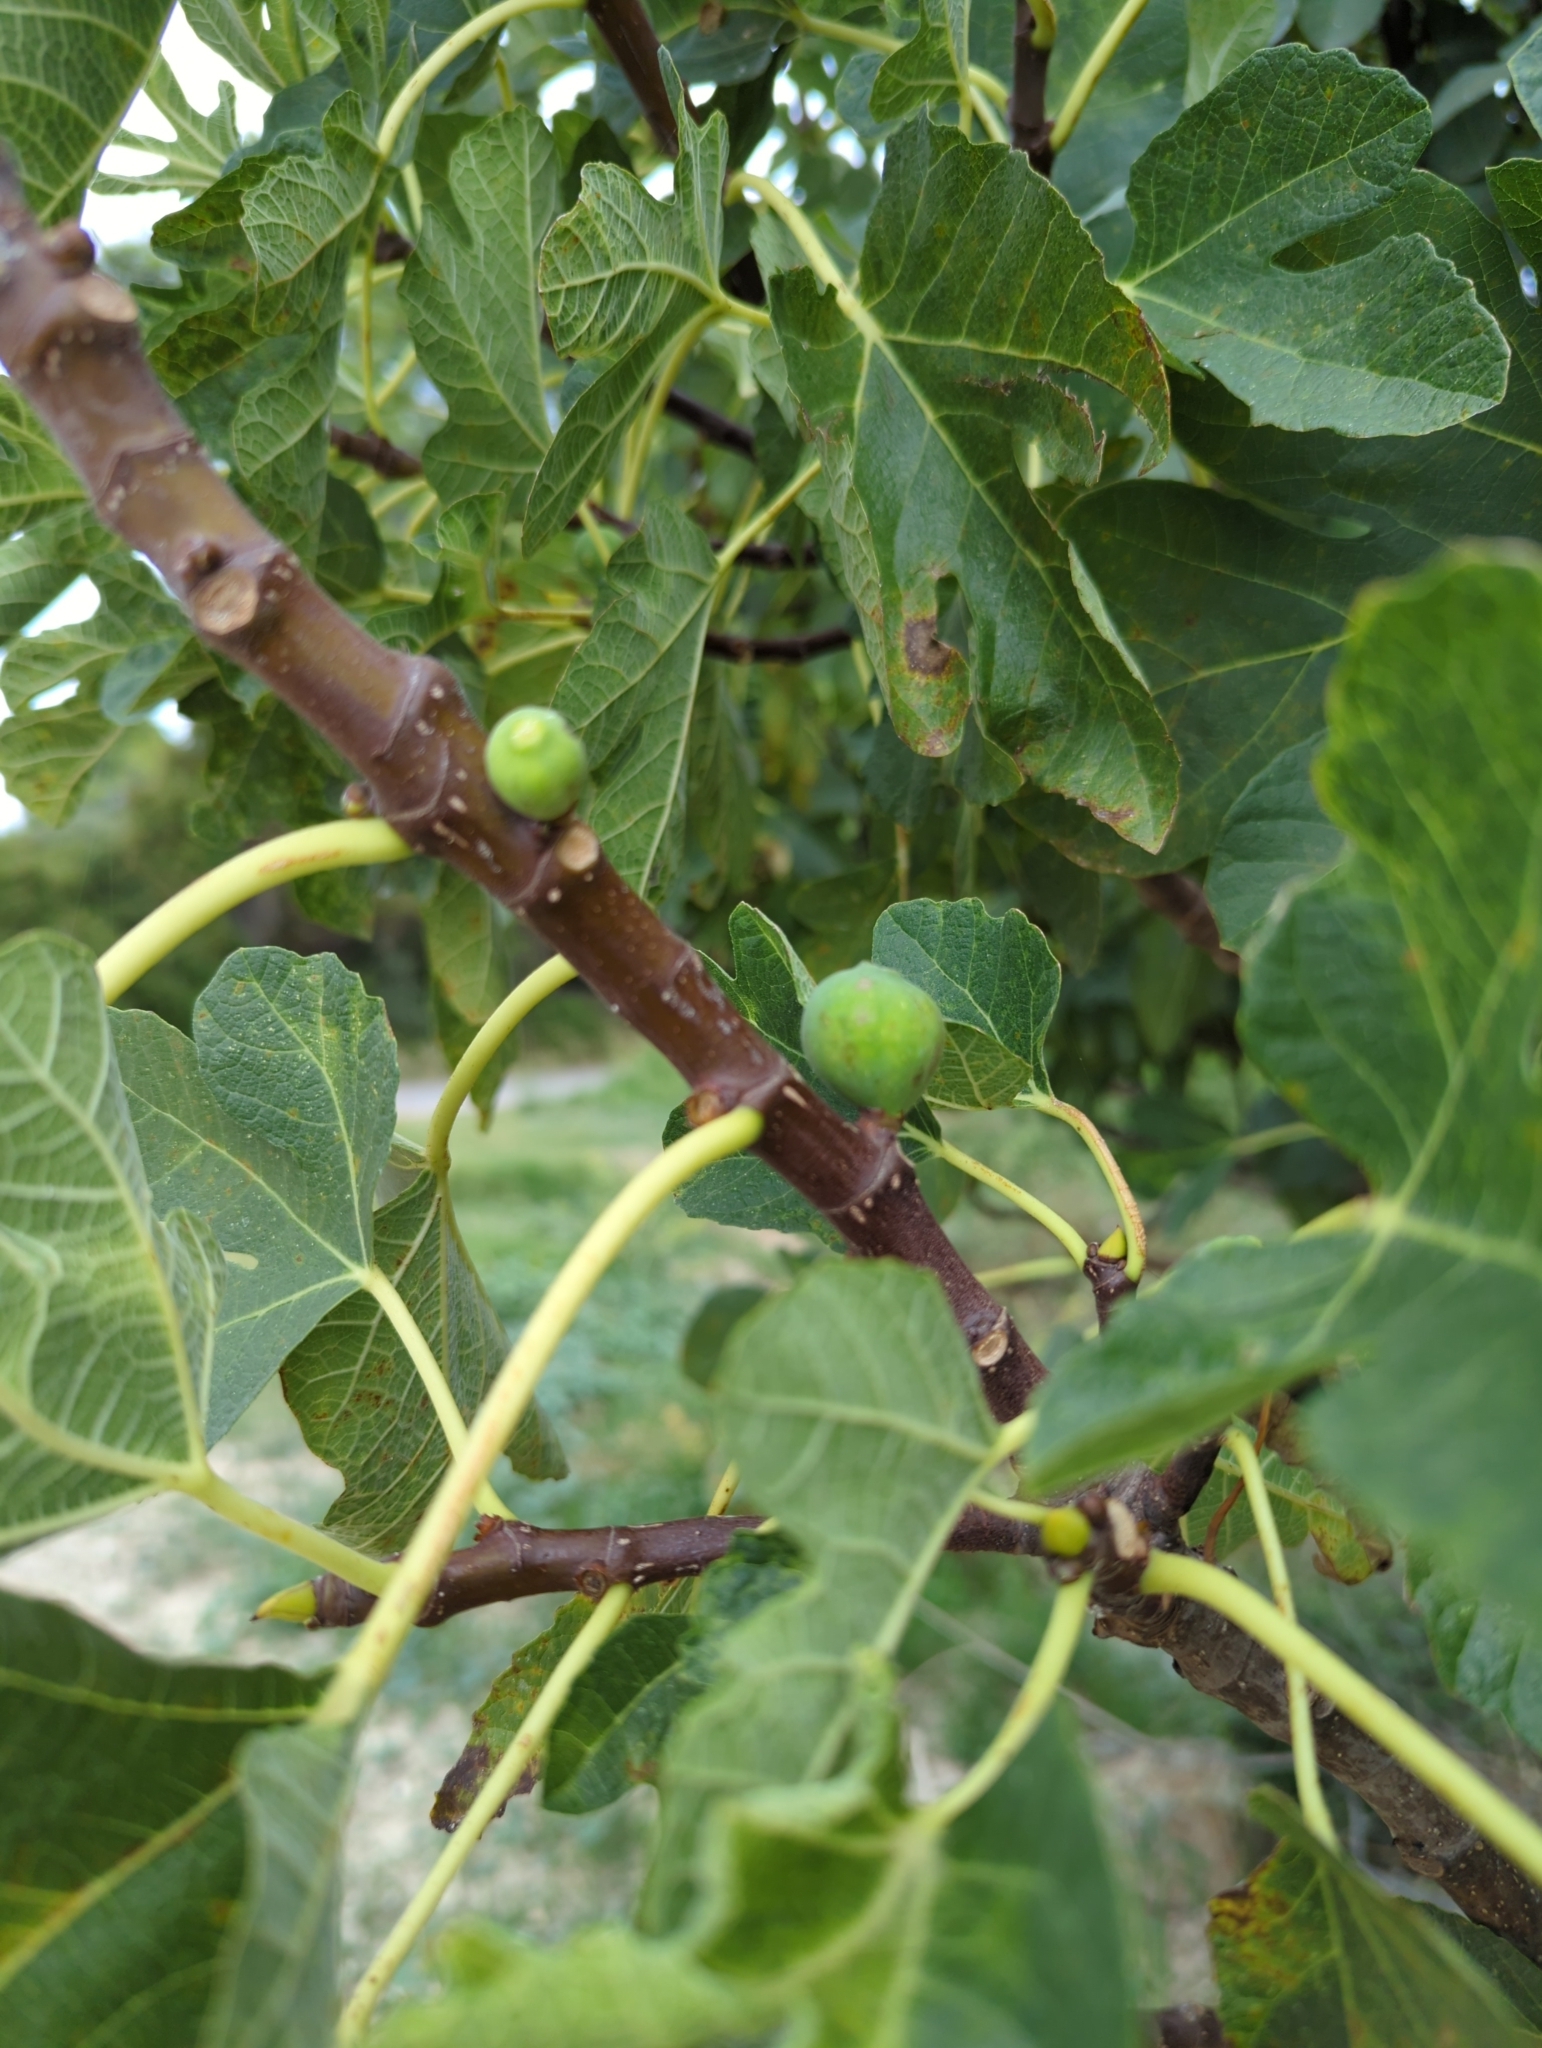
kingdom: Plantae
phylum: Tracheophyta
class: Magnoliopsida
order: Rosales
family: Moraceae
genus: Ficus
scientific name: Ficus carica
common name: Fig
